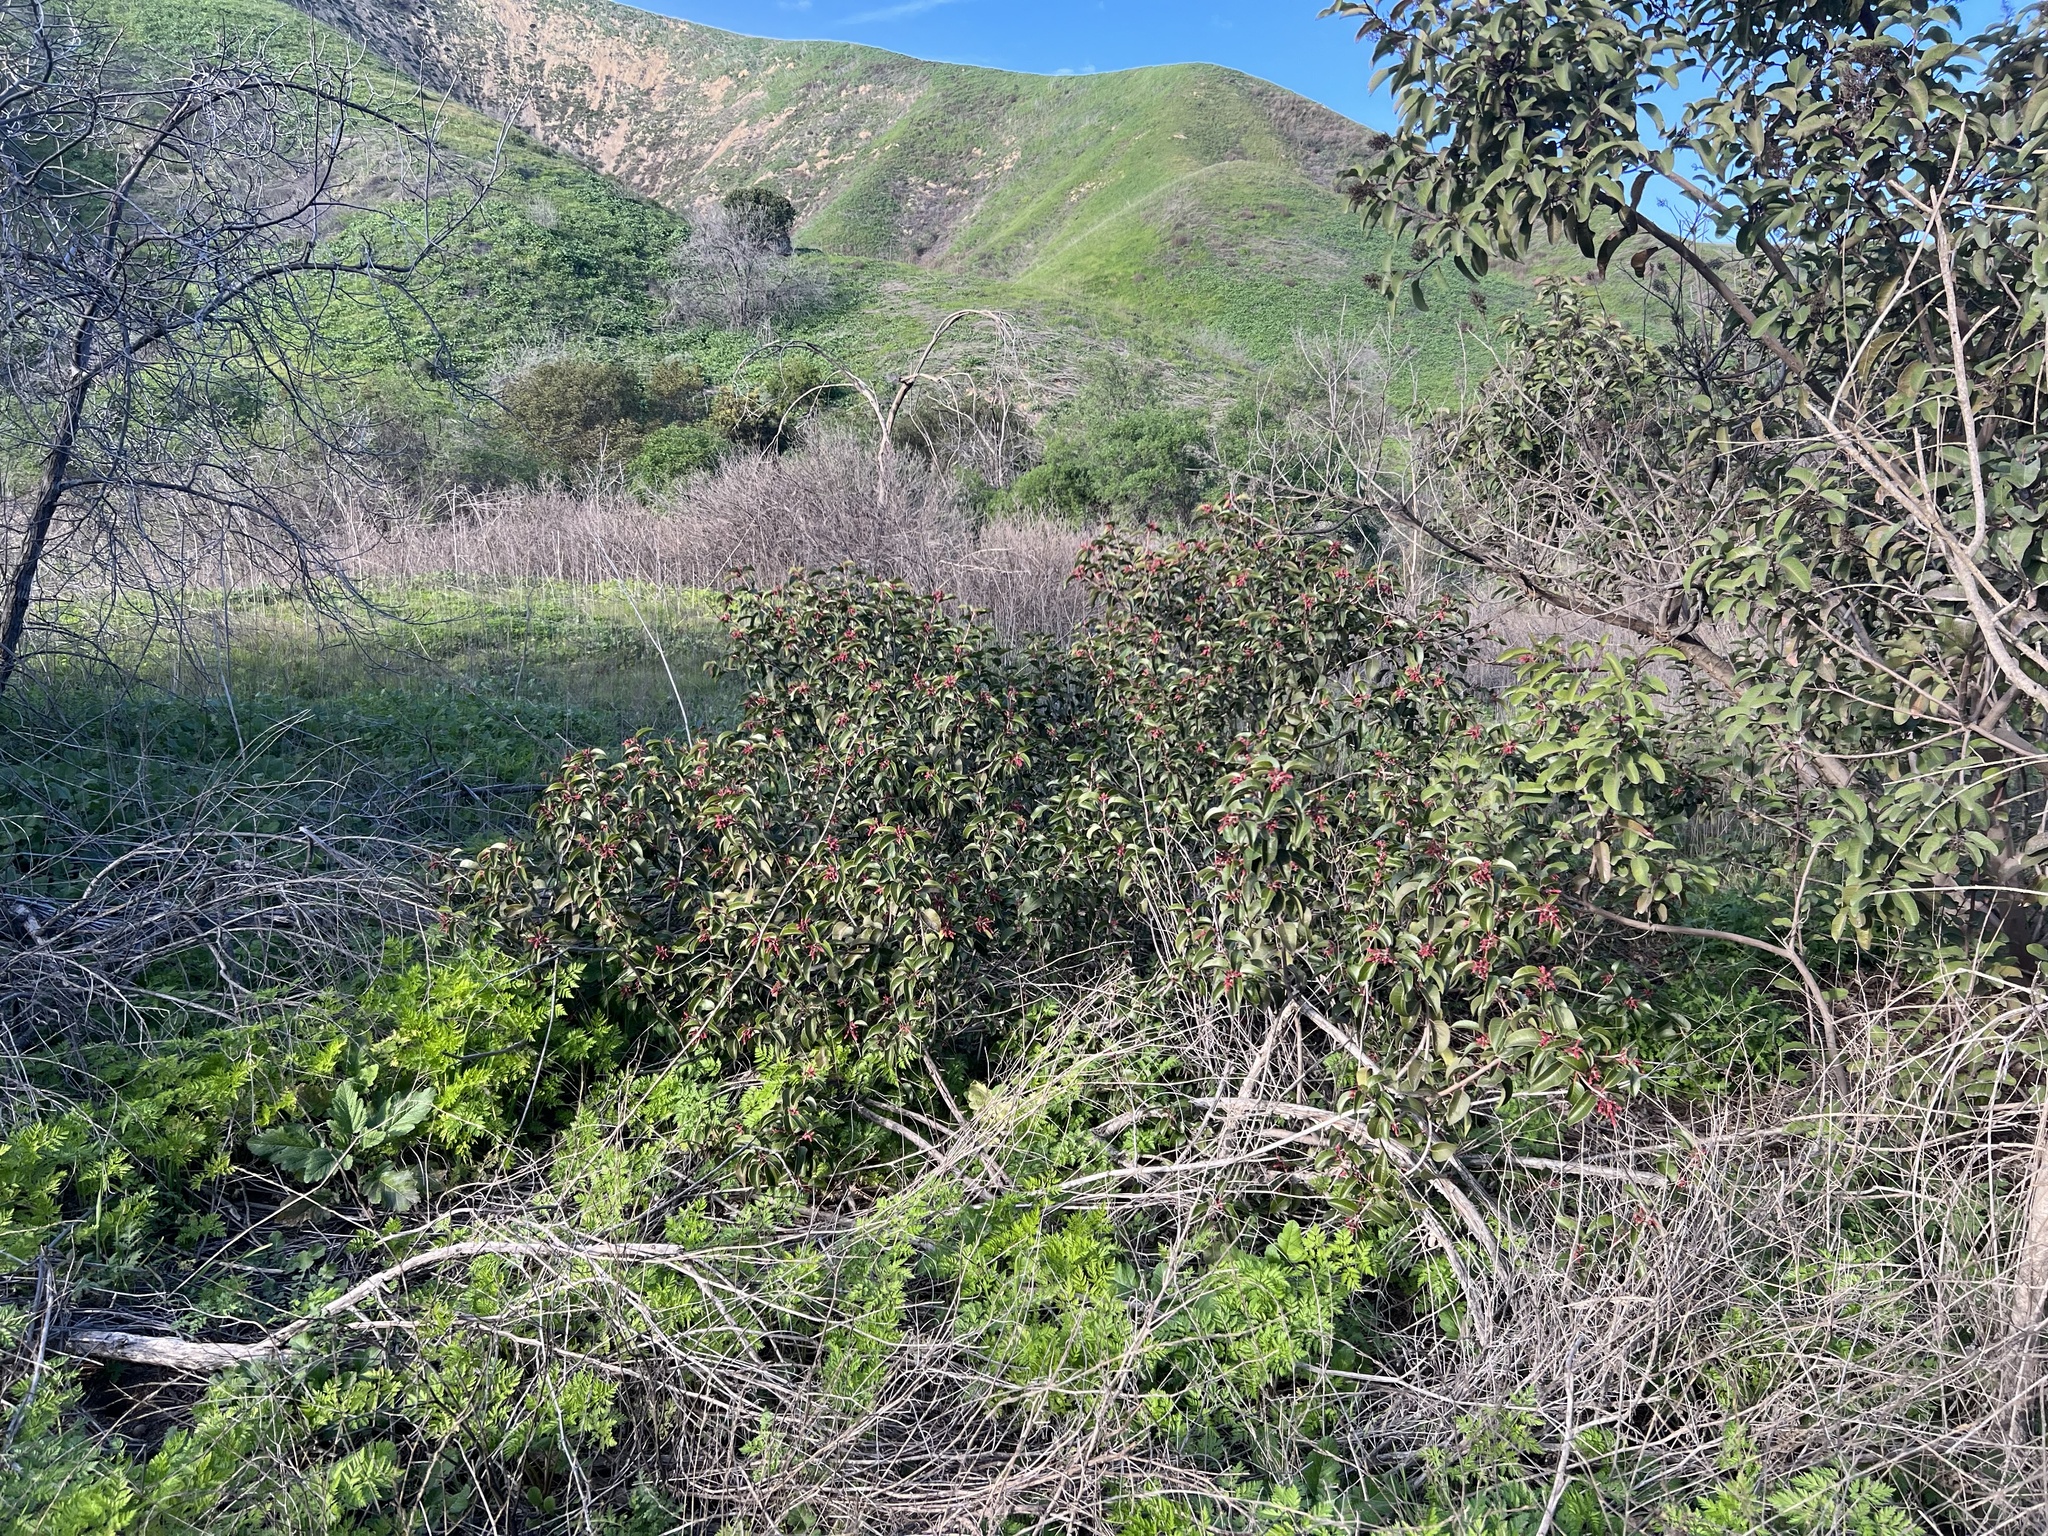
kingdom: Plantae
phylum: Tracheophyta
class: Magnoliopsida
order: Sapindales
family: Anacardiaceae
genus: Rhus
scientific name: Rhus ovata
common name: Sugar sumac
